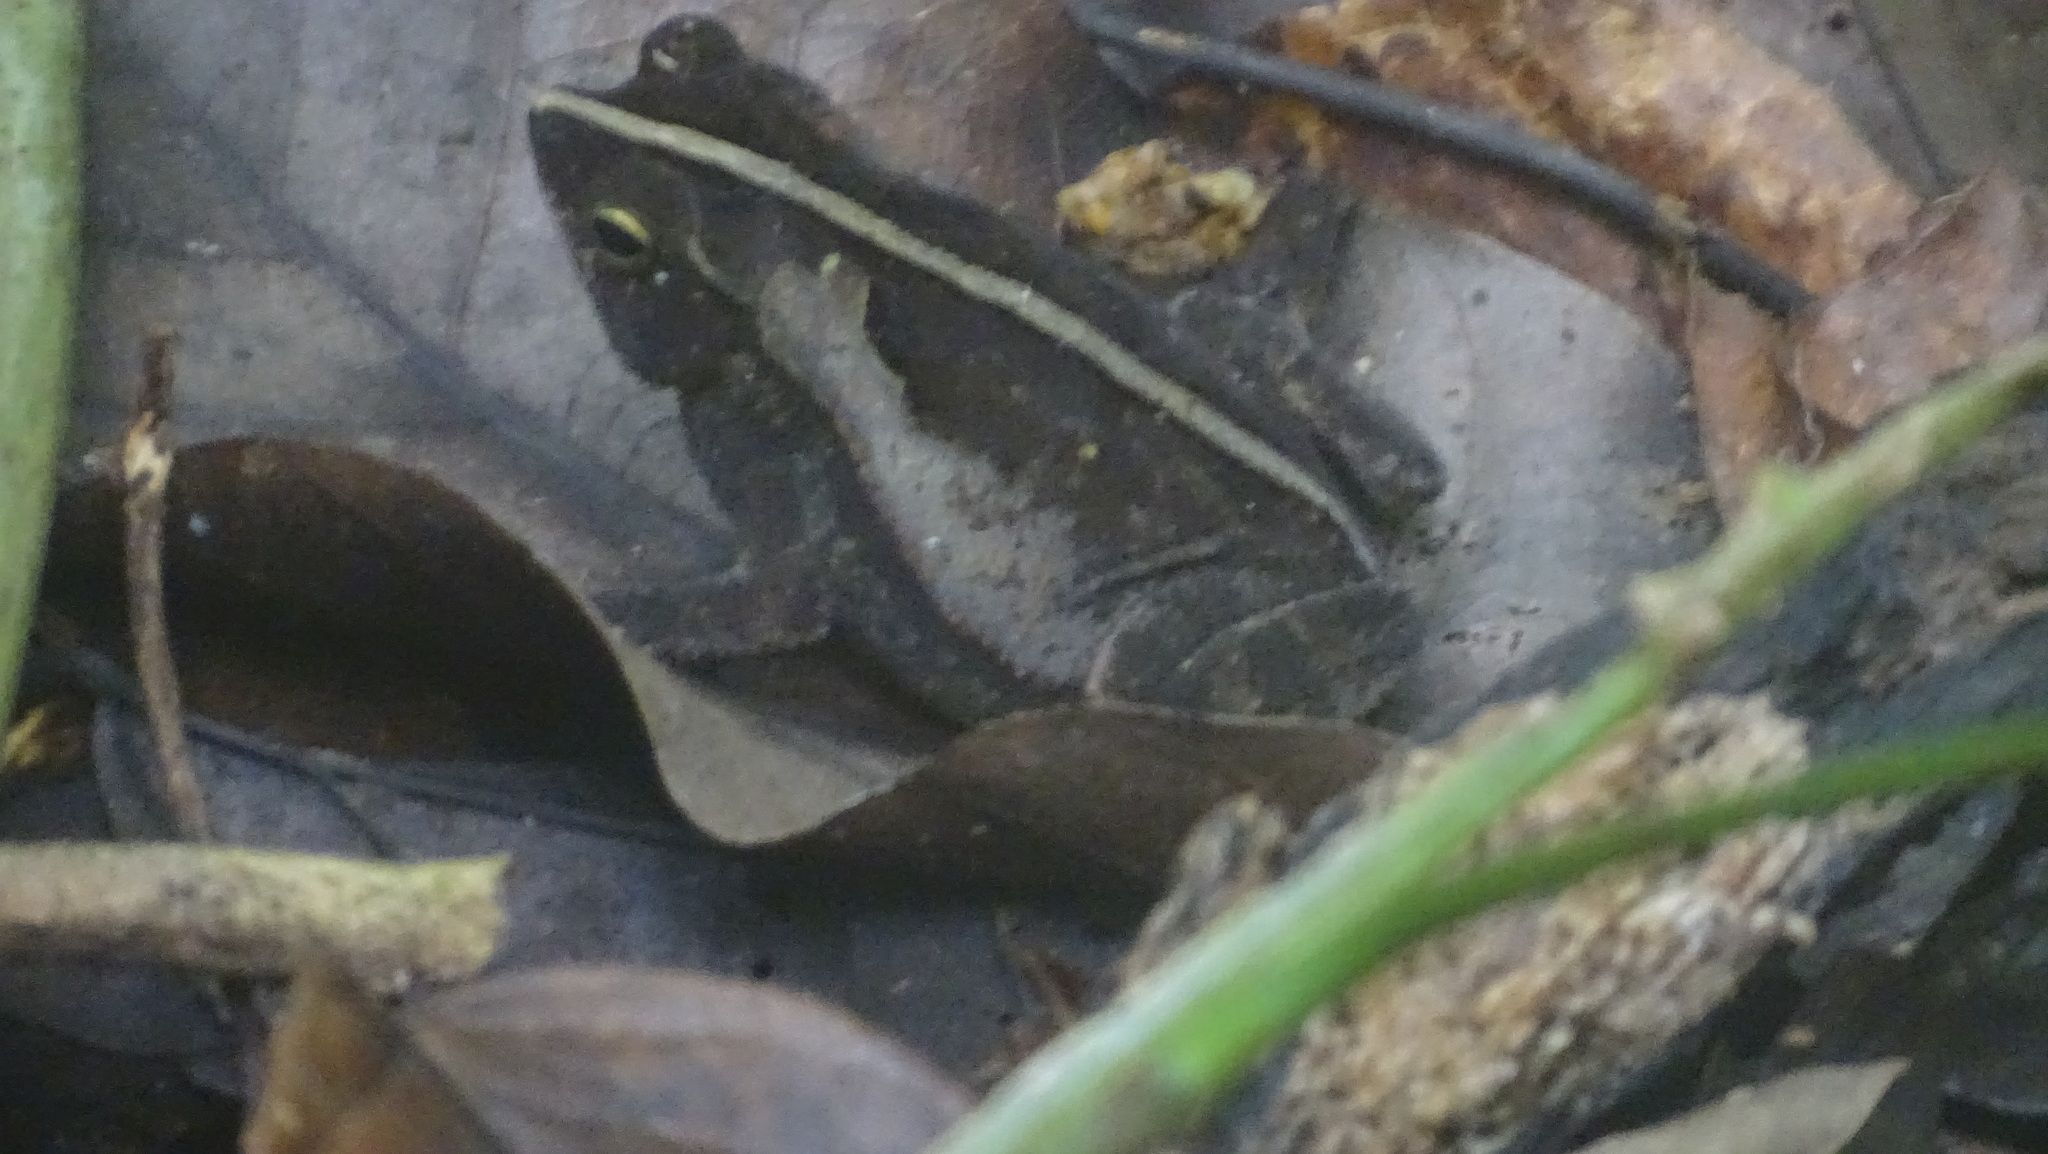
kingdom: Animalia
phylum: Chordata
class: Amphibia
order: Anura
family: Bufonidae
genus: Rhinella
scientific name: Rhinella alata
